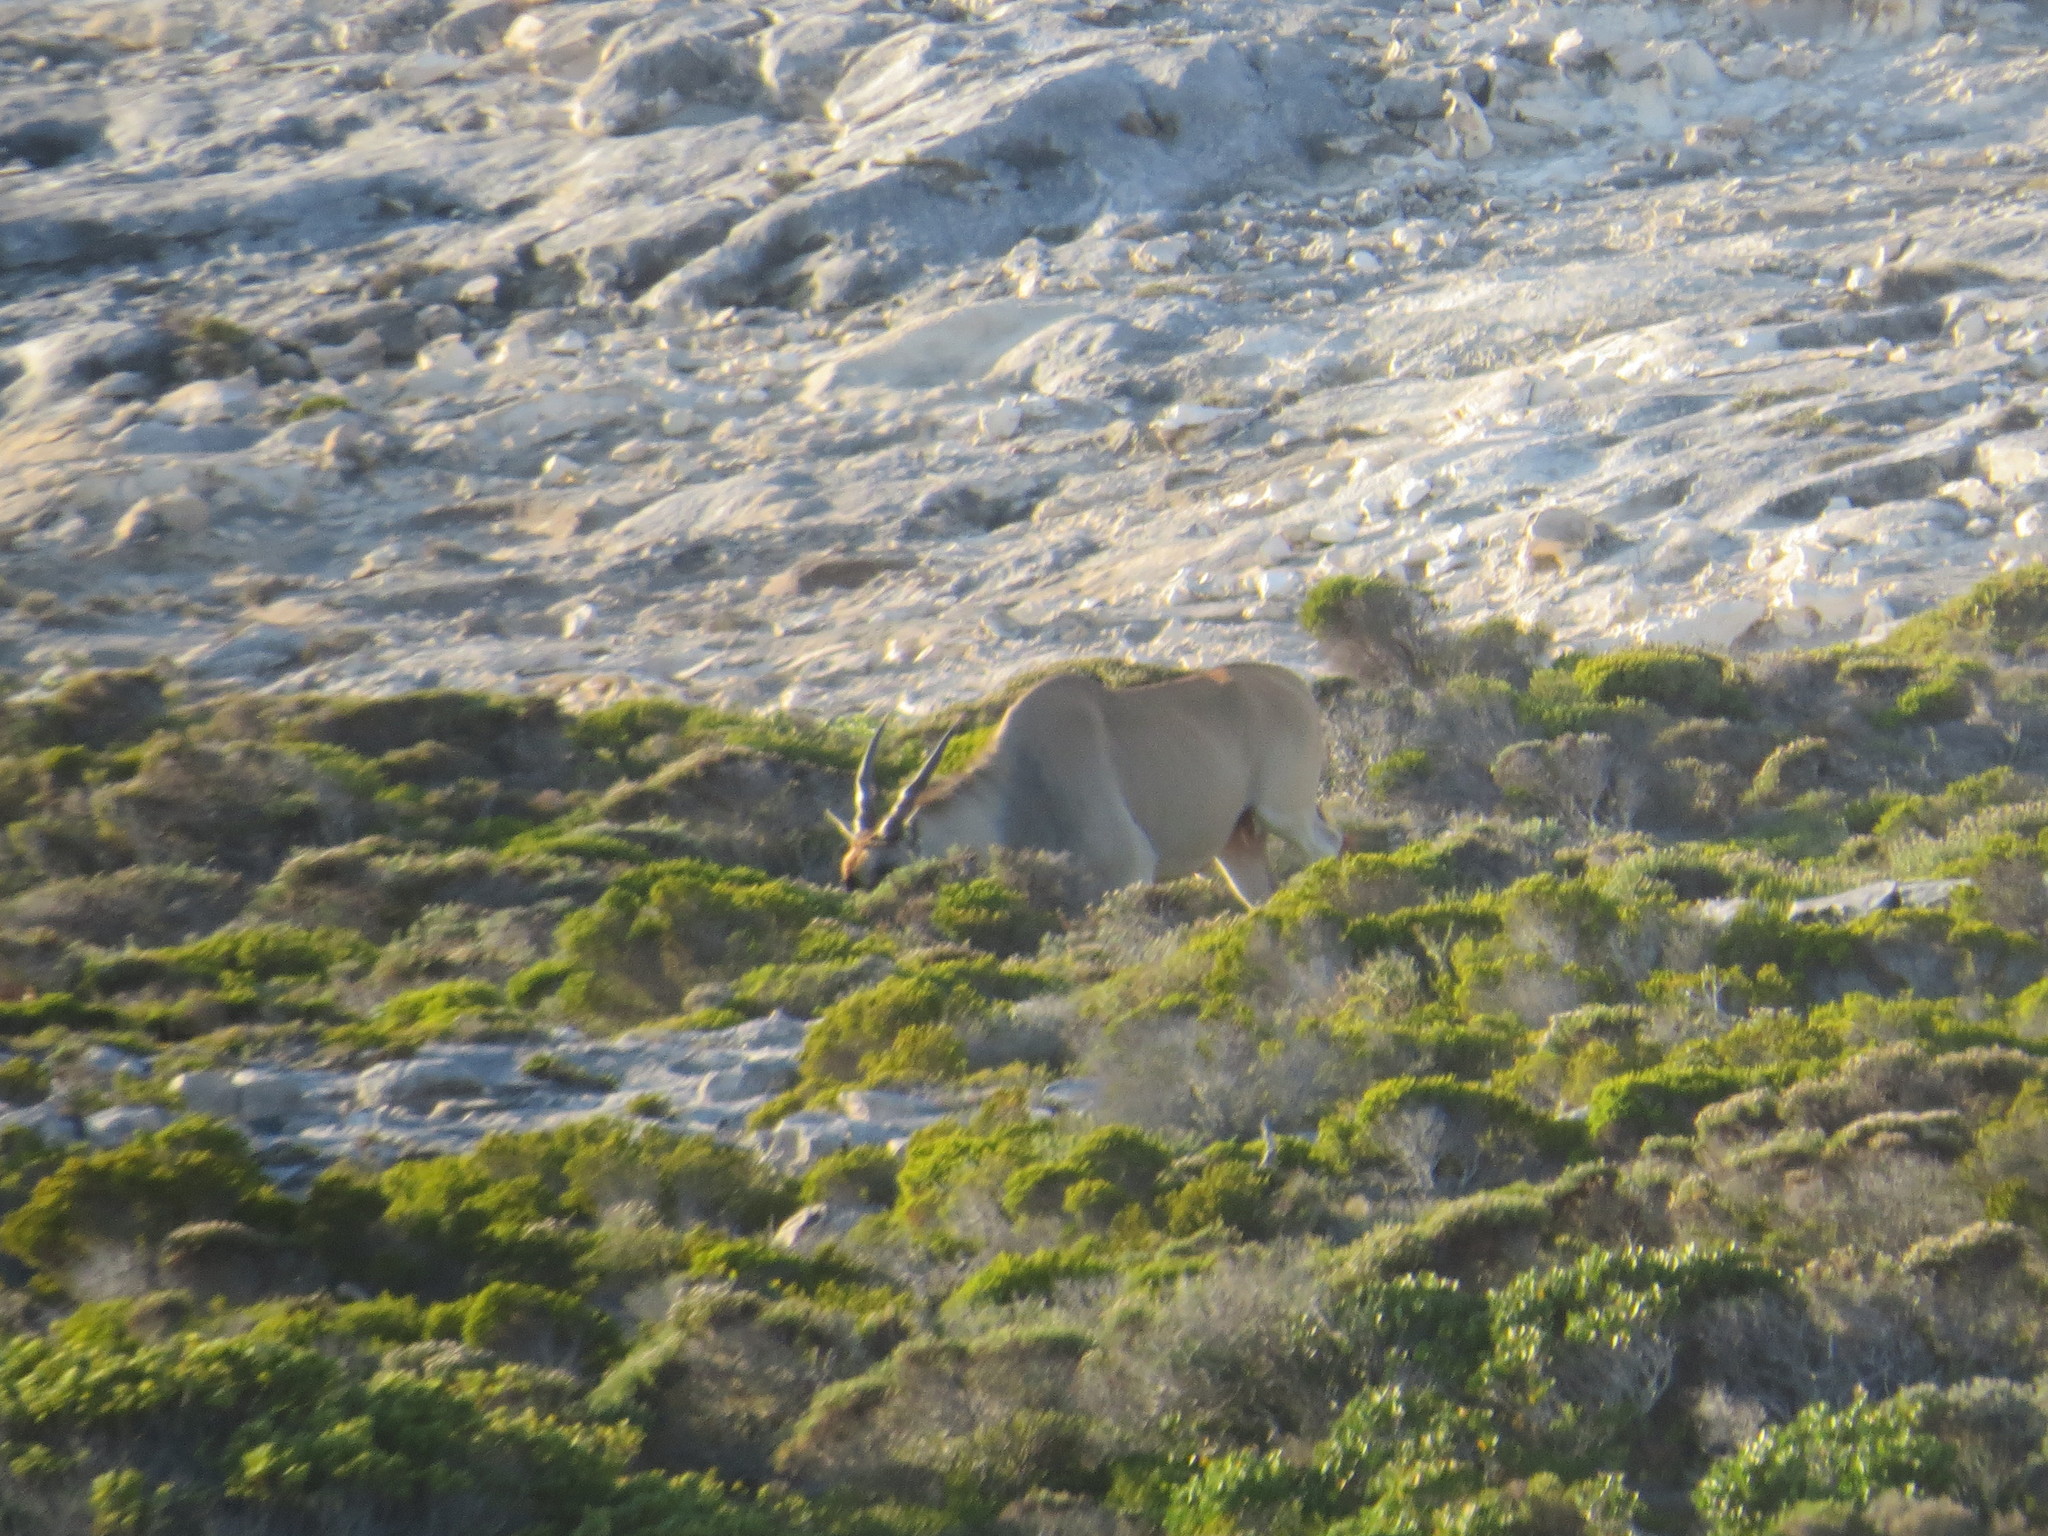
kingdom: Animalia
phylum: Chordata
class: Mammalia
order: Artiodactyla
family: Bovidae
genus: Taurotragus
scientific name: Taurotragus oryx
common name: Common eland
